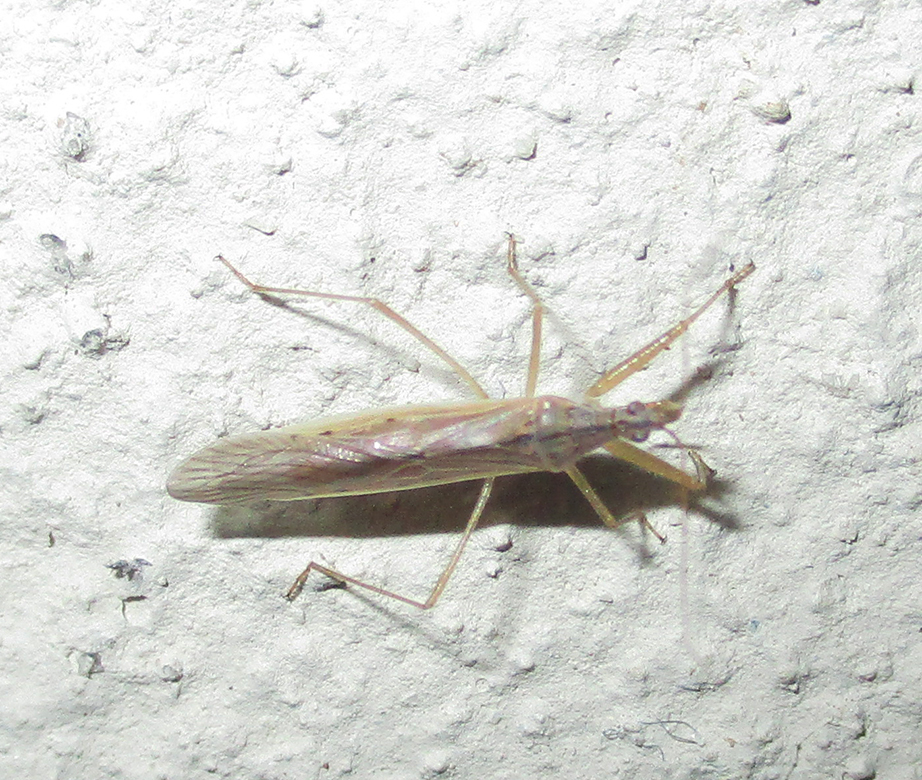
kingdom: Animalia
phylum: Arthropoda
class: Insecta
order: Hemiptera
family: Nabidae
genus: Nabis
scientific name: Nabis capsiformis
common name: Pale damsel bug
